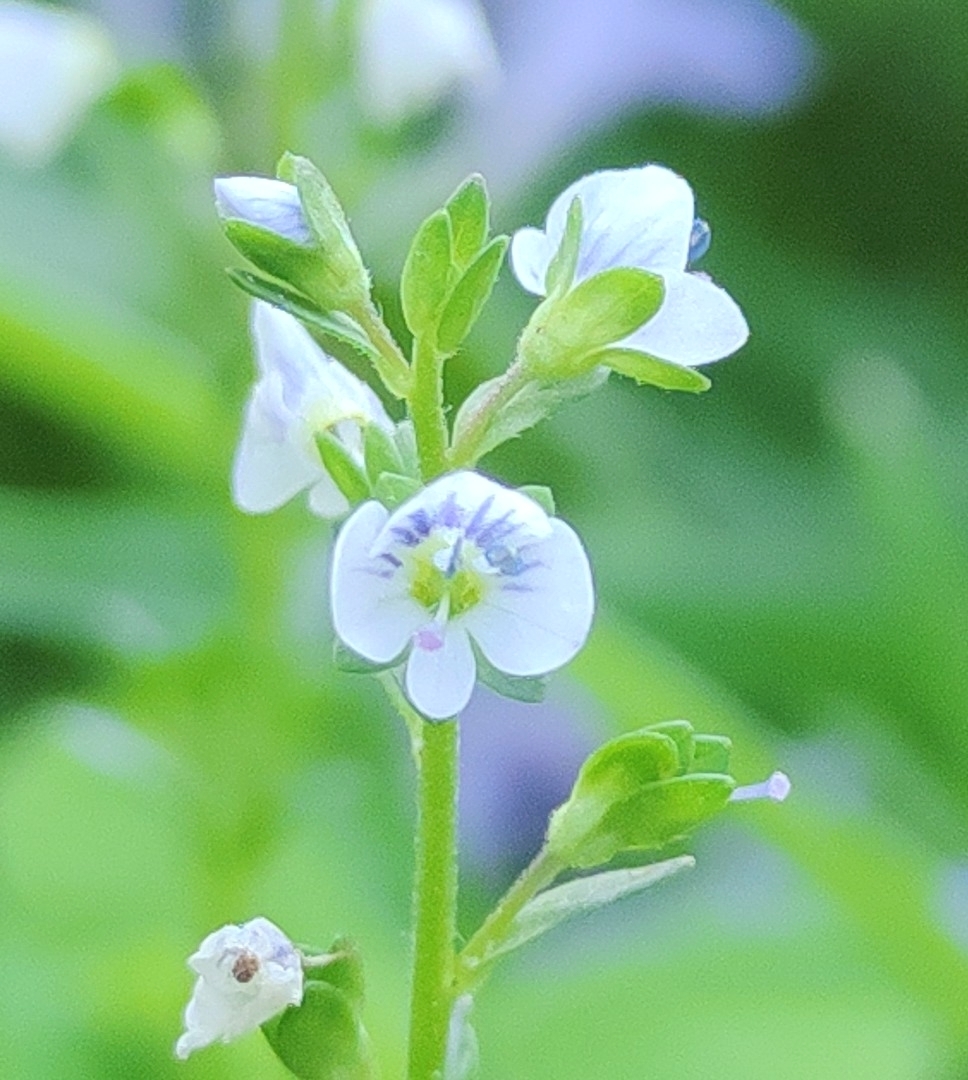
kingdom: Plantae
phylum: Tracheophyta
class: Magnoliopsida
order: Lamiales
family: Plantaginaceae
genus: Veronica
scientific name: Veronica serpyllifolia
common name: Thyme-leaved speedwell
